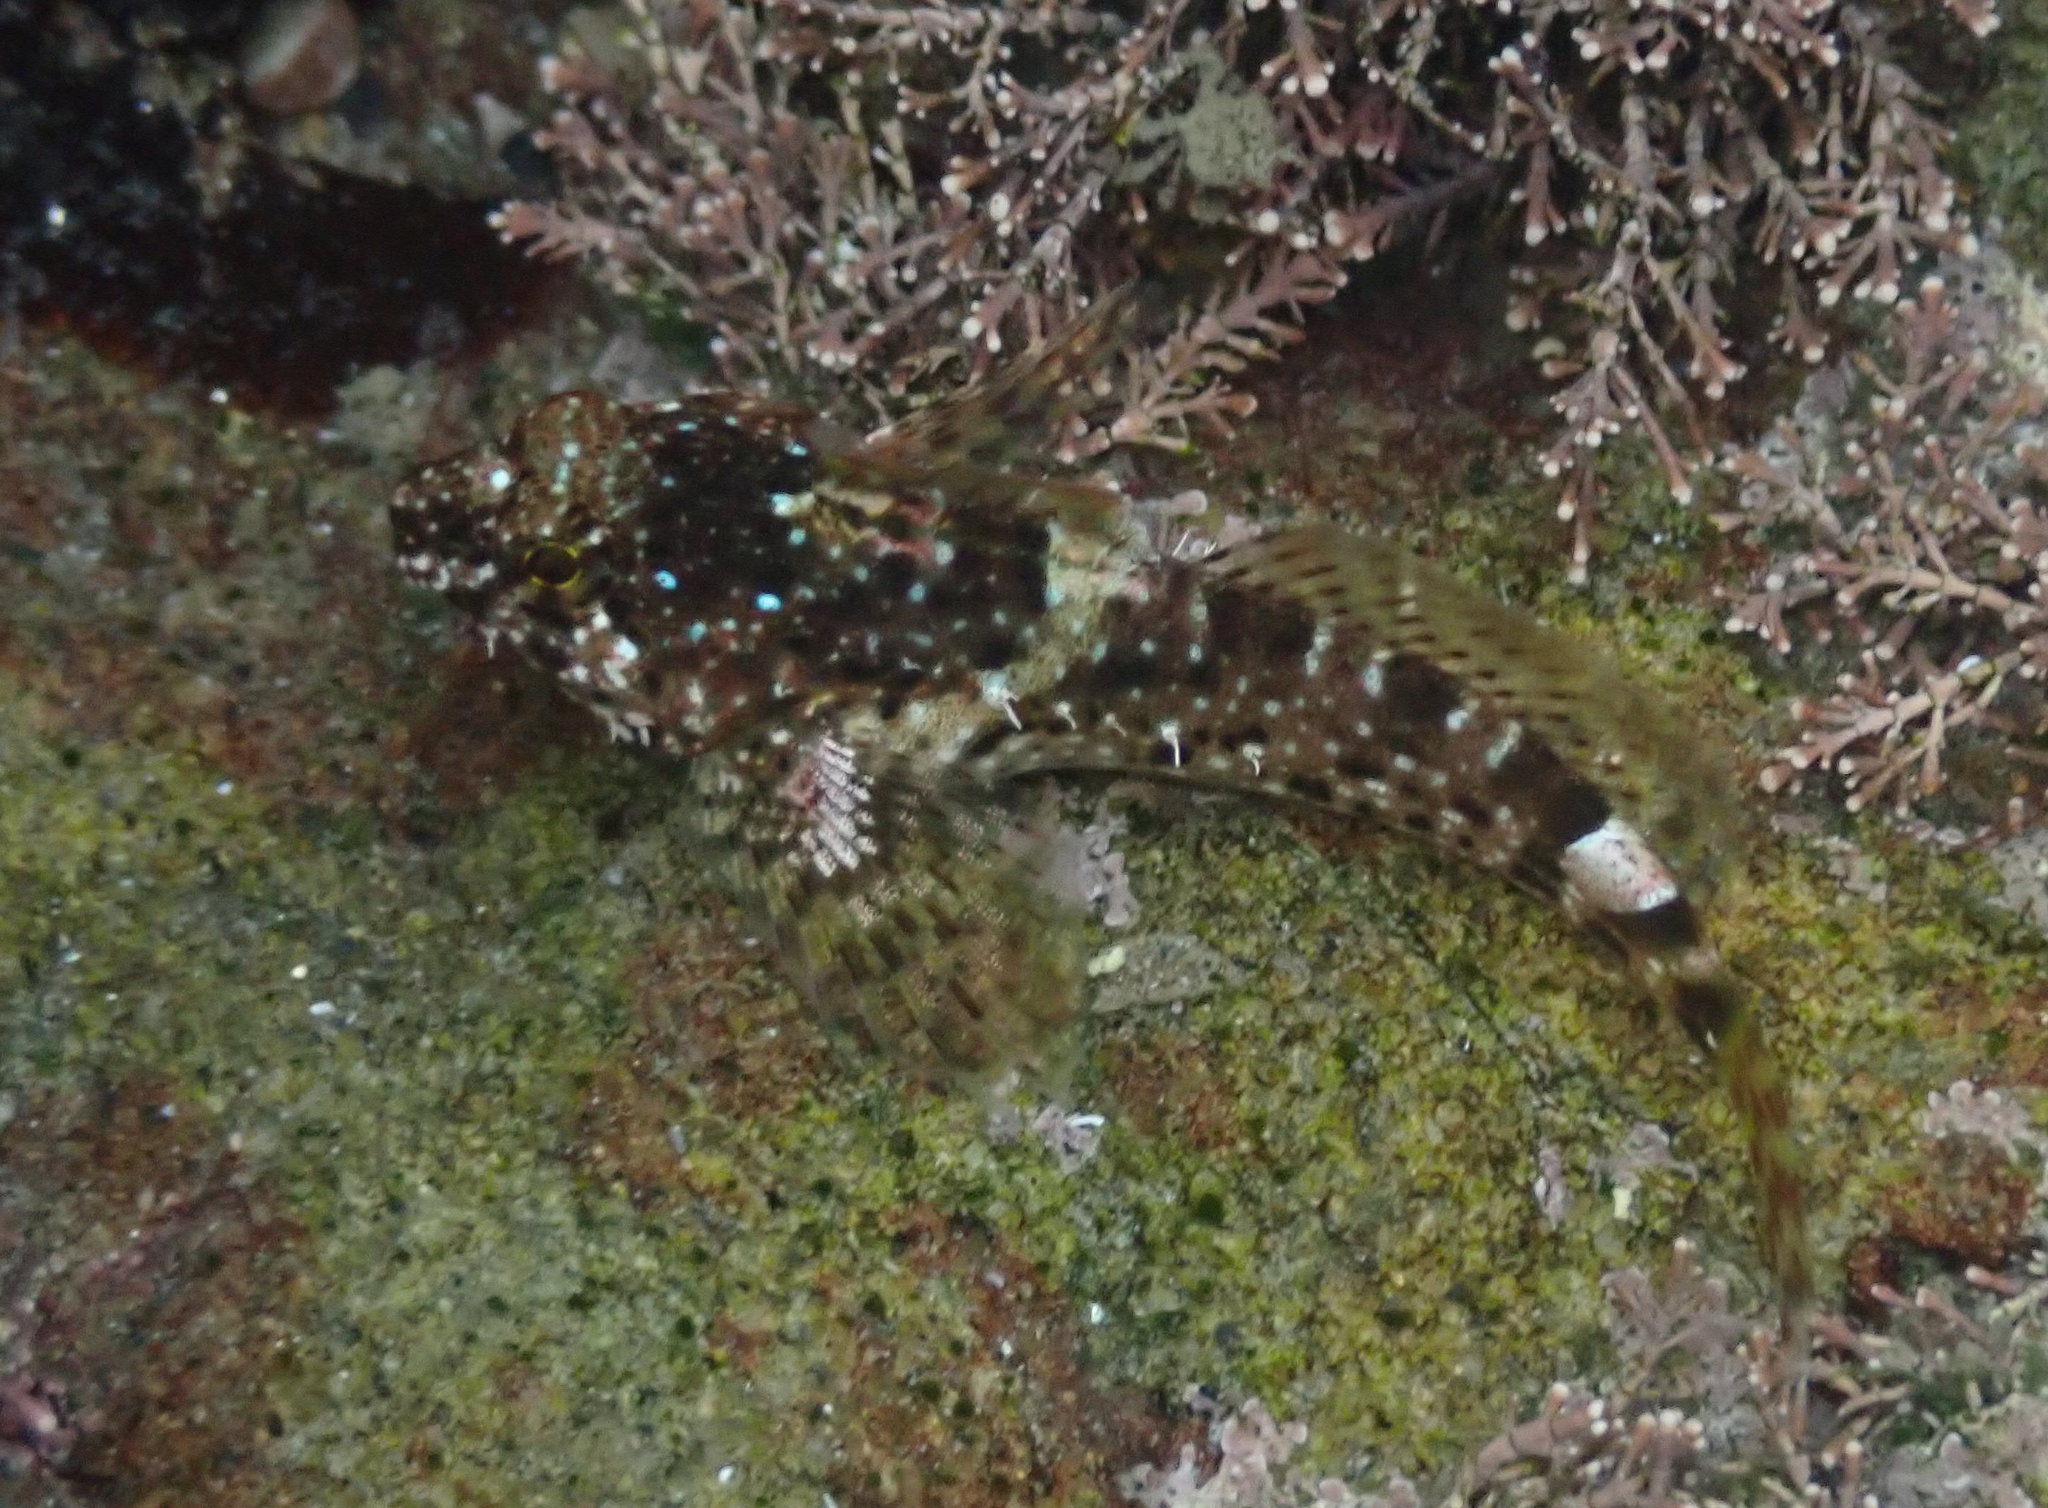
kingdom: Animalia
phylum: Chordata
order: Scorpaeniformes
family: Cottidae
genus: Clinocottus
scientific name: Clinocottus analis
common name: Woolly sculpin
